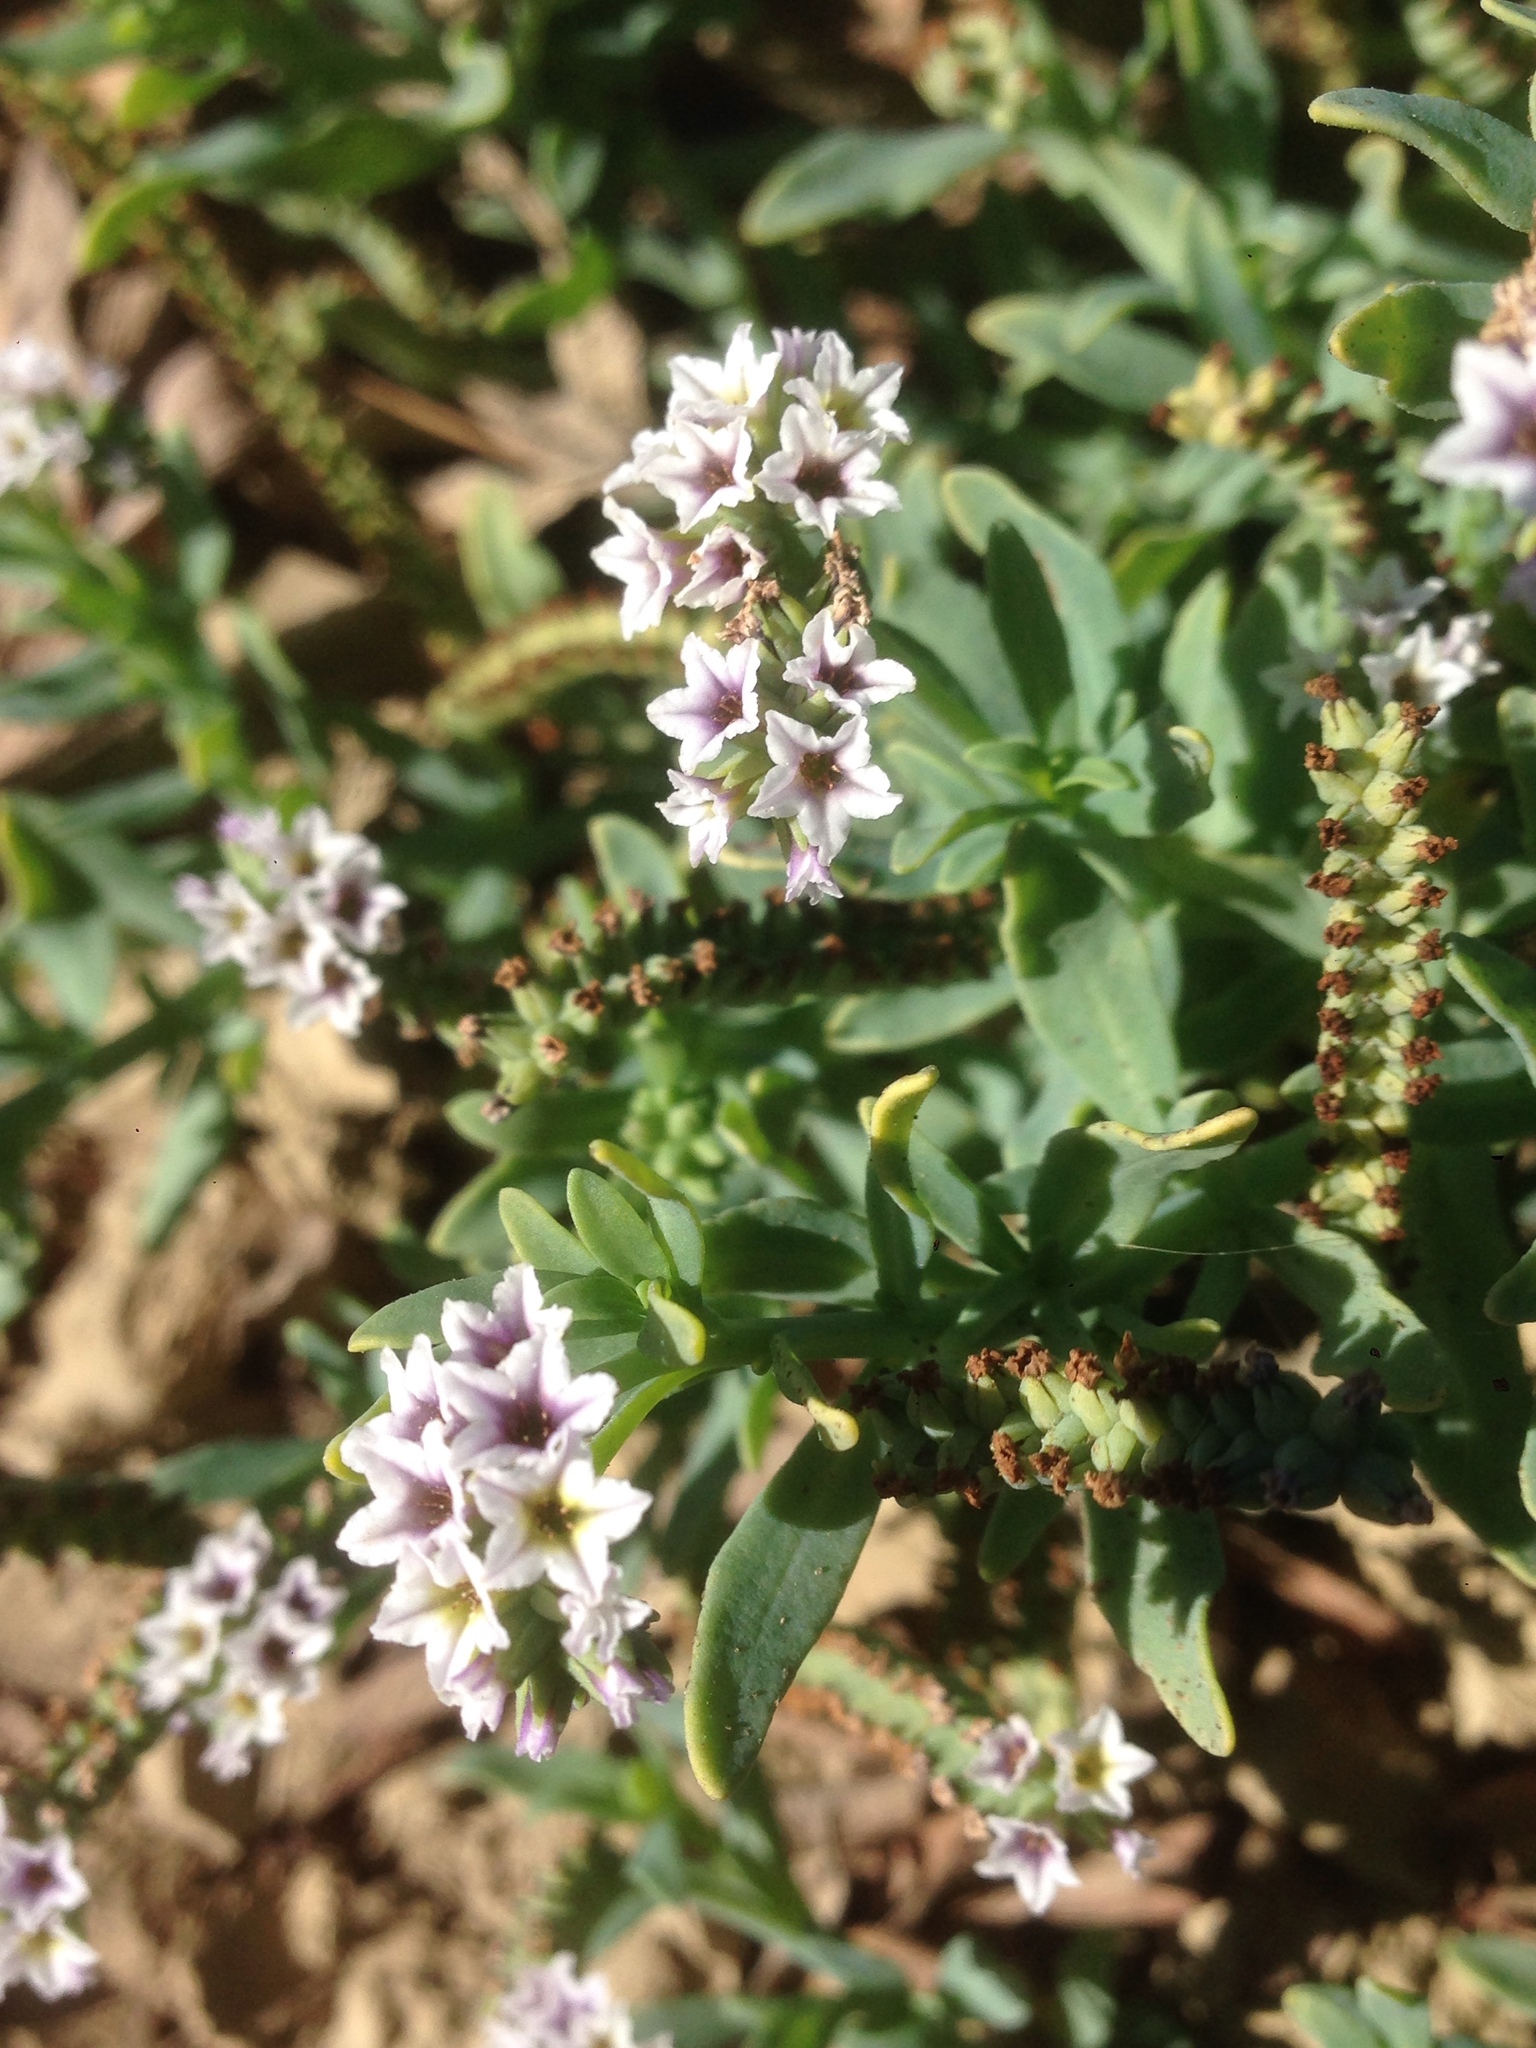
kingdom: Plantae
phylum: Tracheophyta
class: Magnoliopsida
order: Boraginales
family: Heliotropiaceae
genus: Heliotropium
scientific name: Heliotropium curassavicum
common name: Seaside heliotrope
